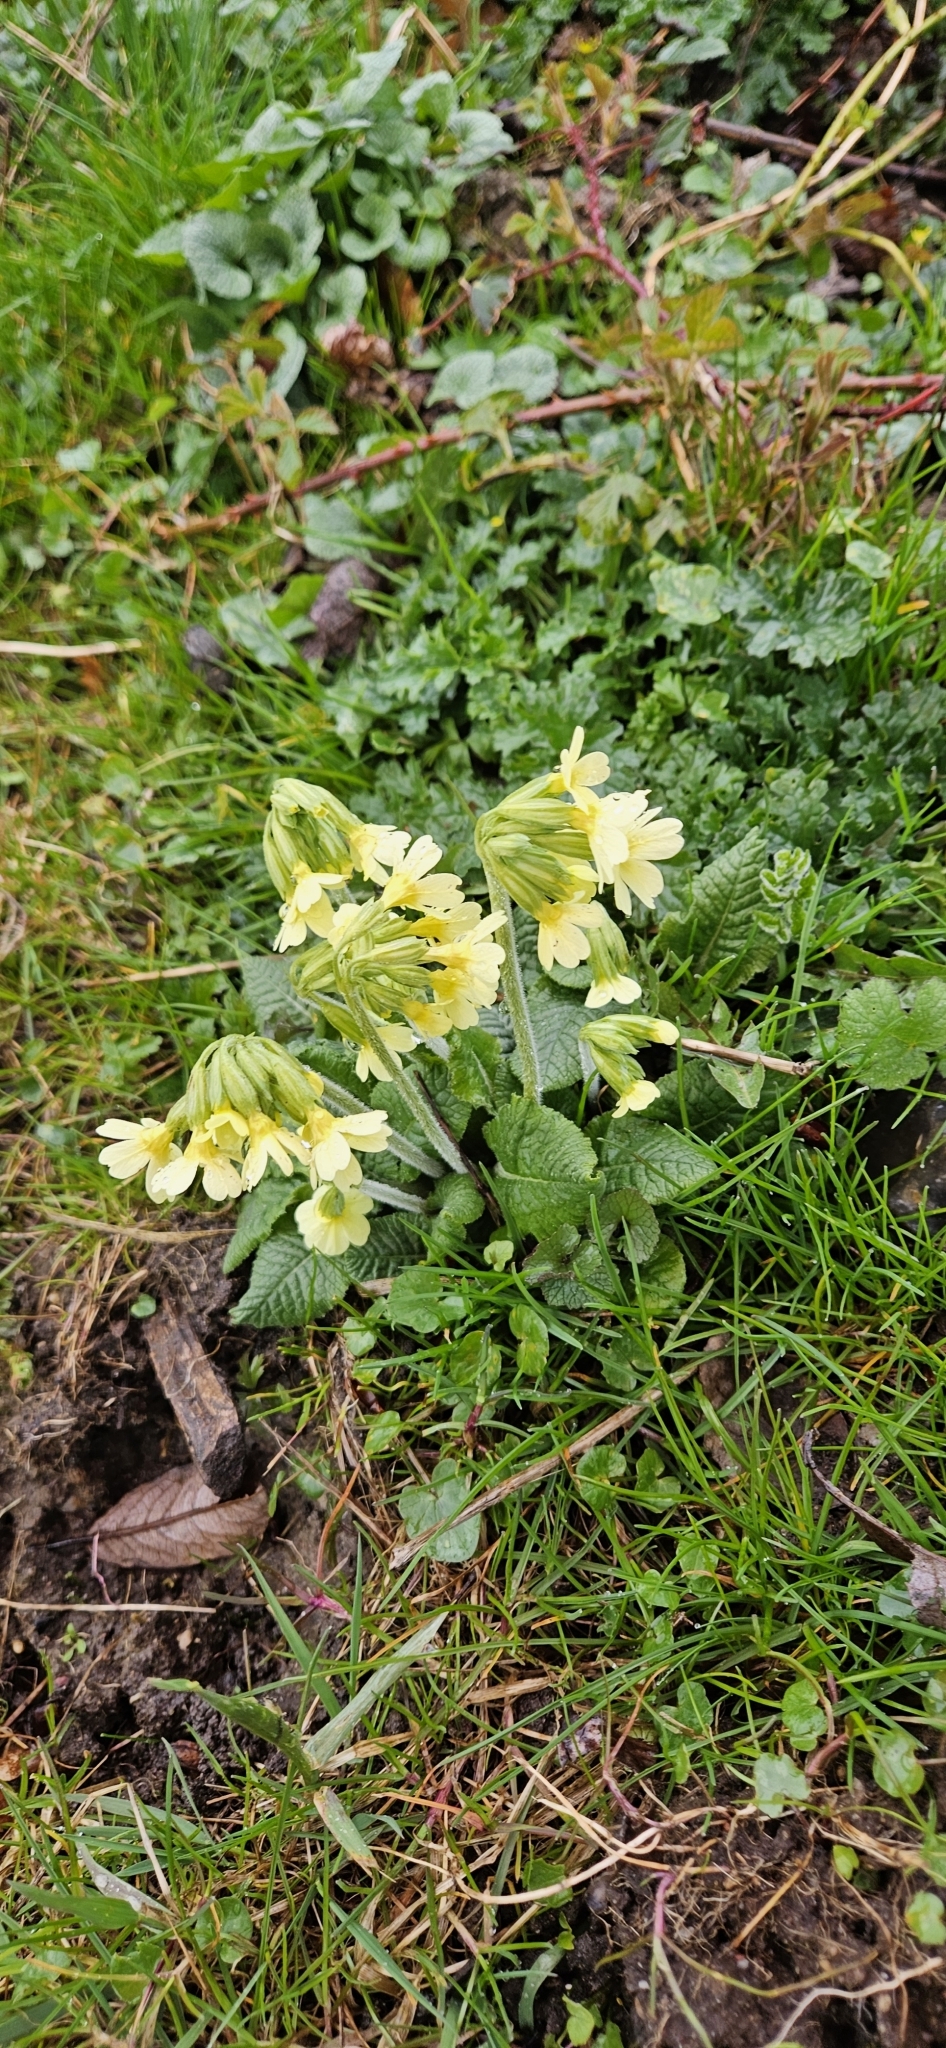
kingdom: Plantae
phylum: Tracheophyta
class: Magnoliopsida
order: Ericales
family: Primulaceae
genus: Primula
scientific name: Primula elatior
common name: Oxlip
